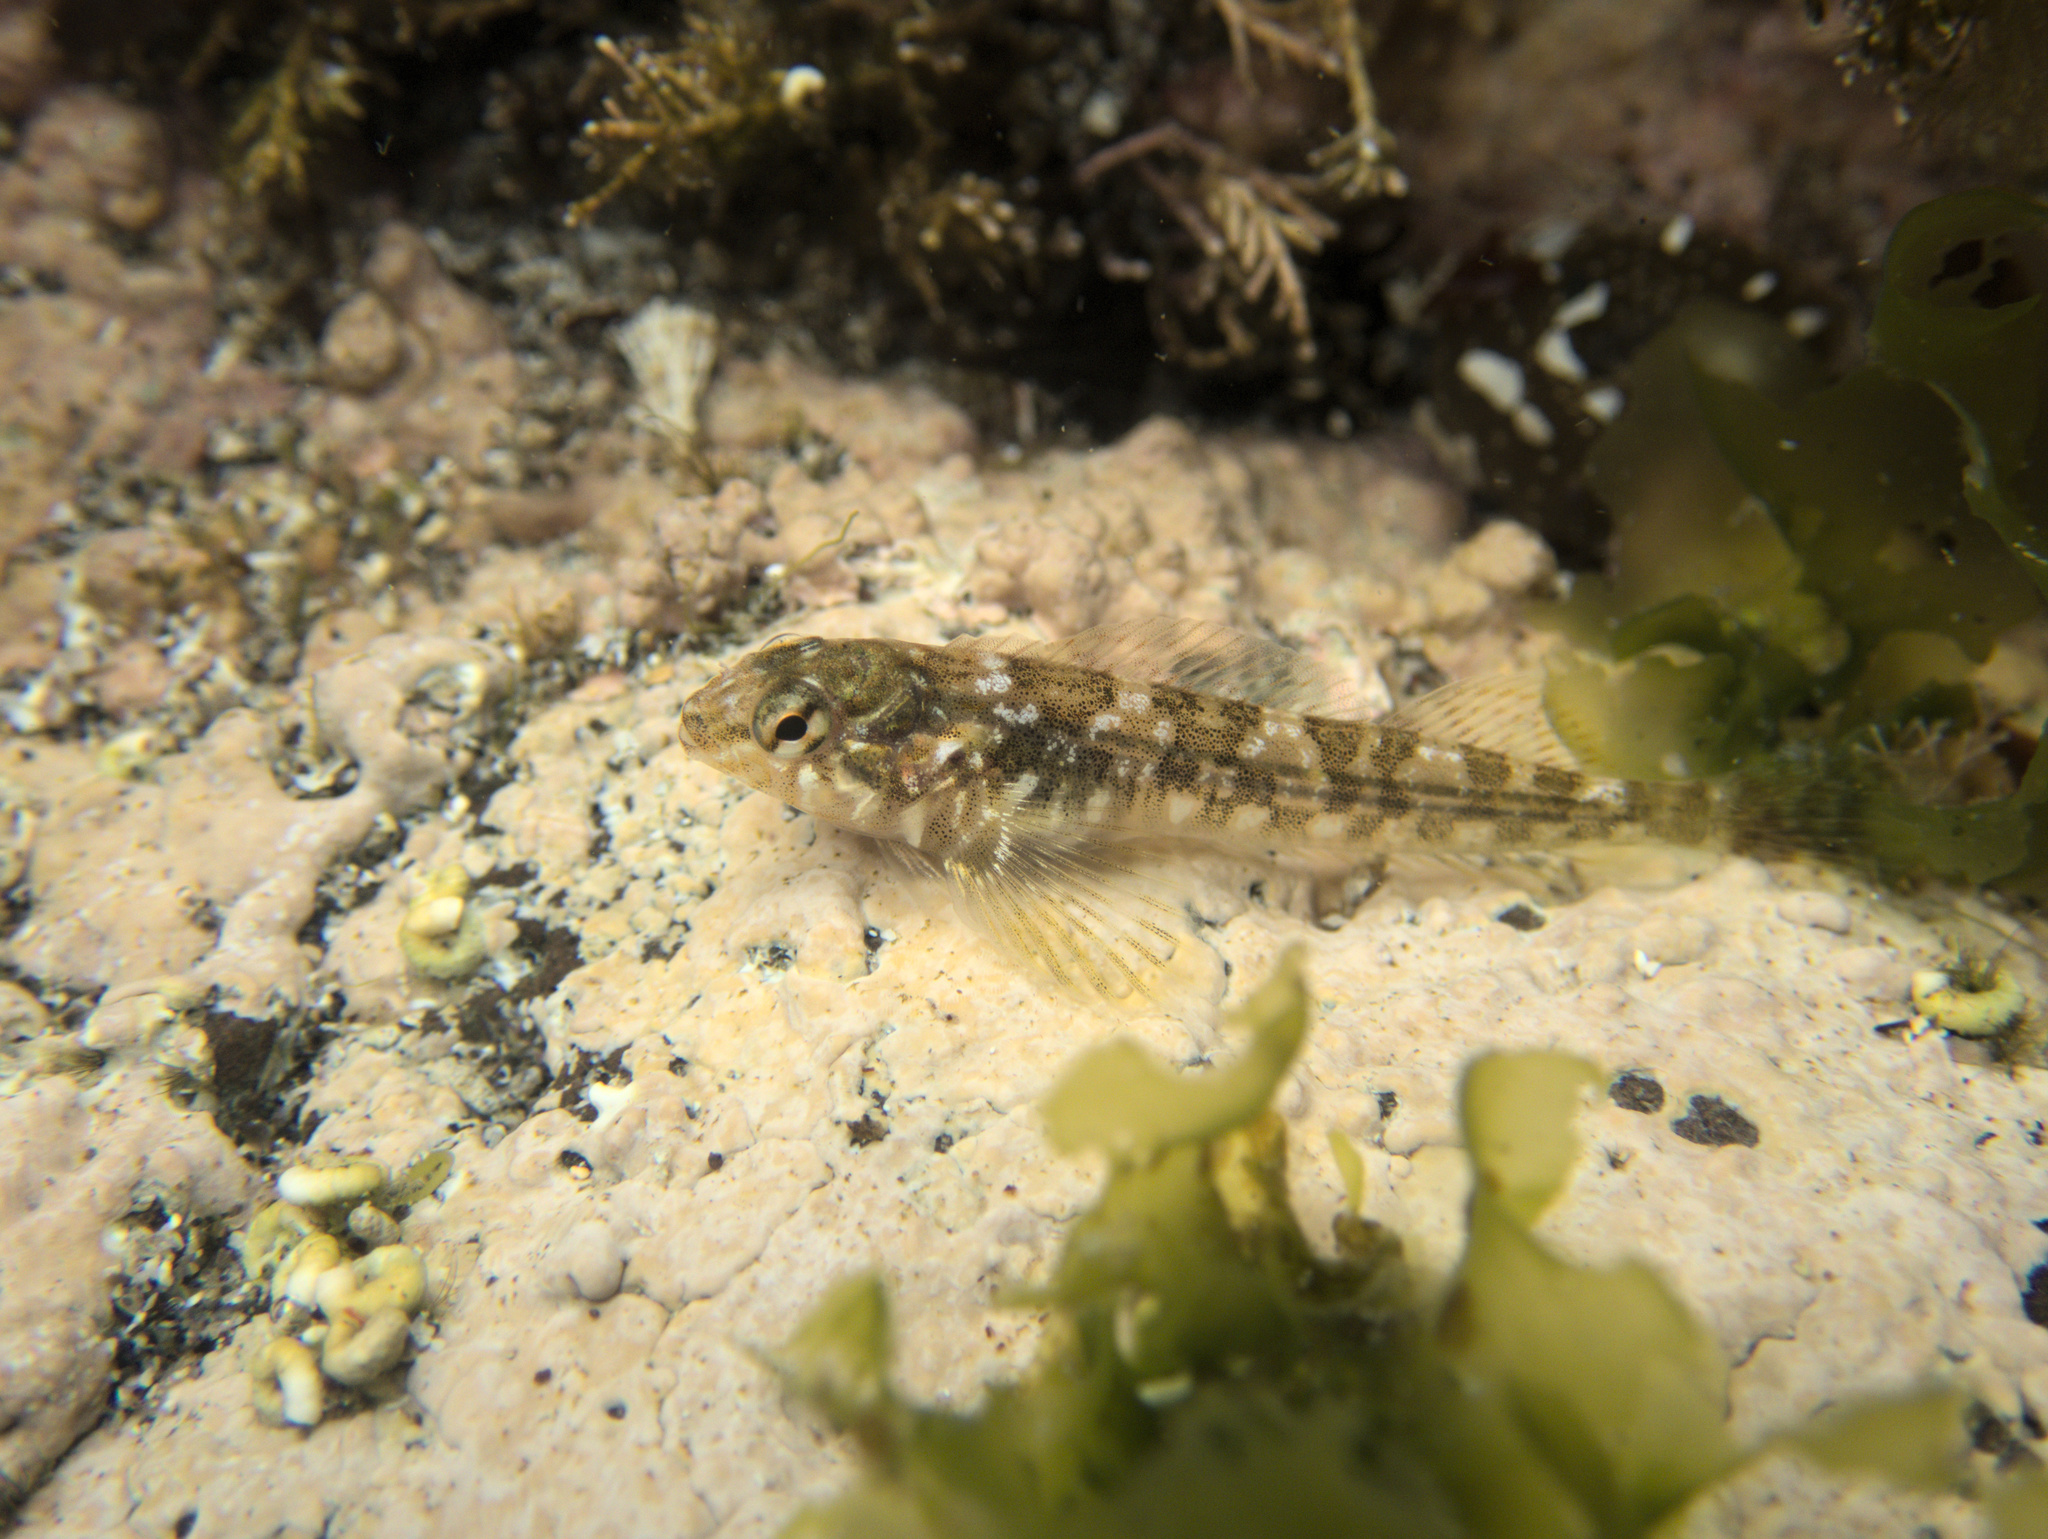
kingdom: Animalia
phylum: Chordata
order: Perciformes
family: Tripterygiidae
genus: Bellapiscis
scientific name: Bellapiscis medius
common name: Twister
